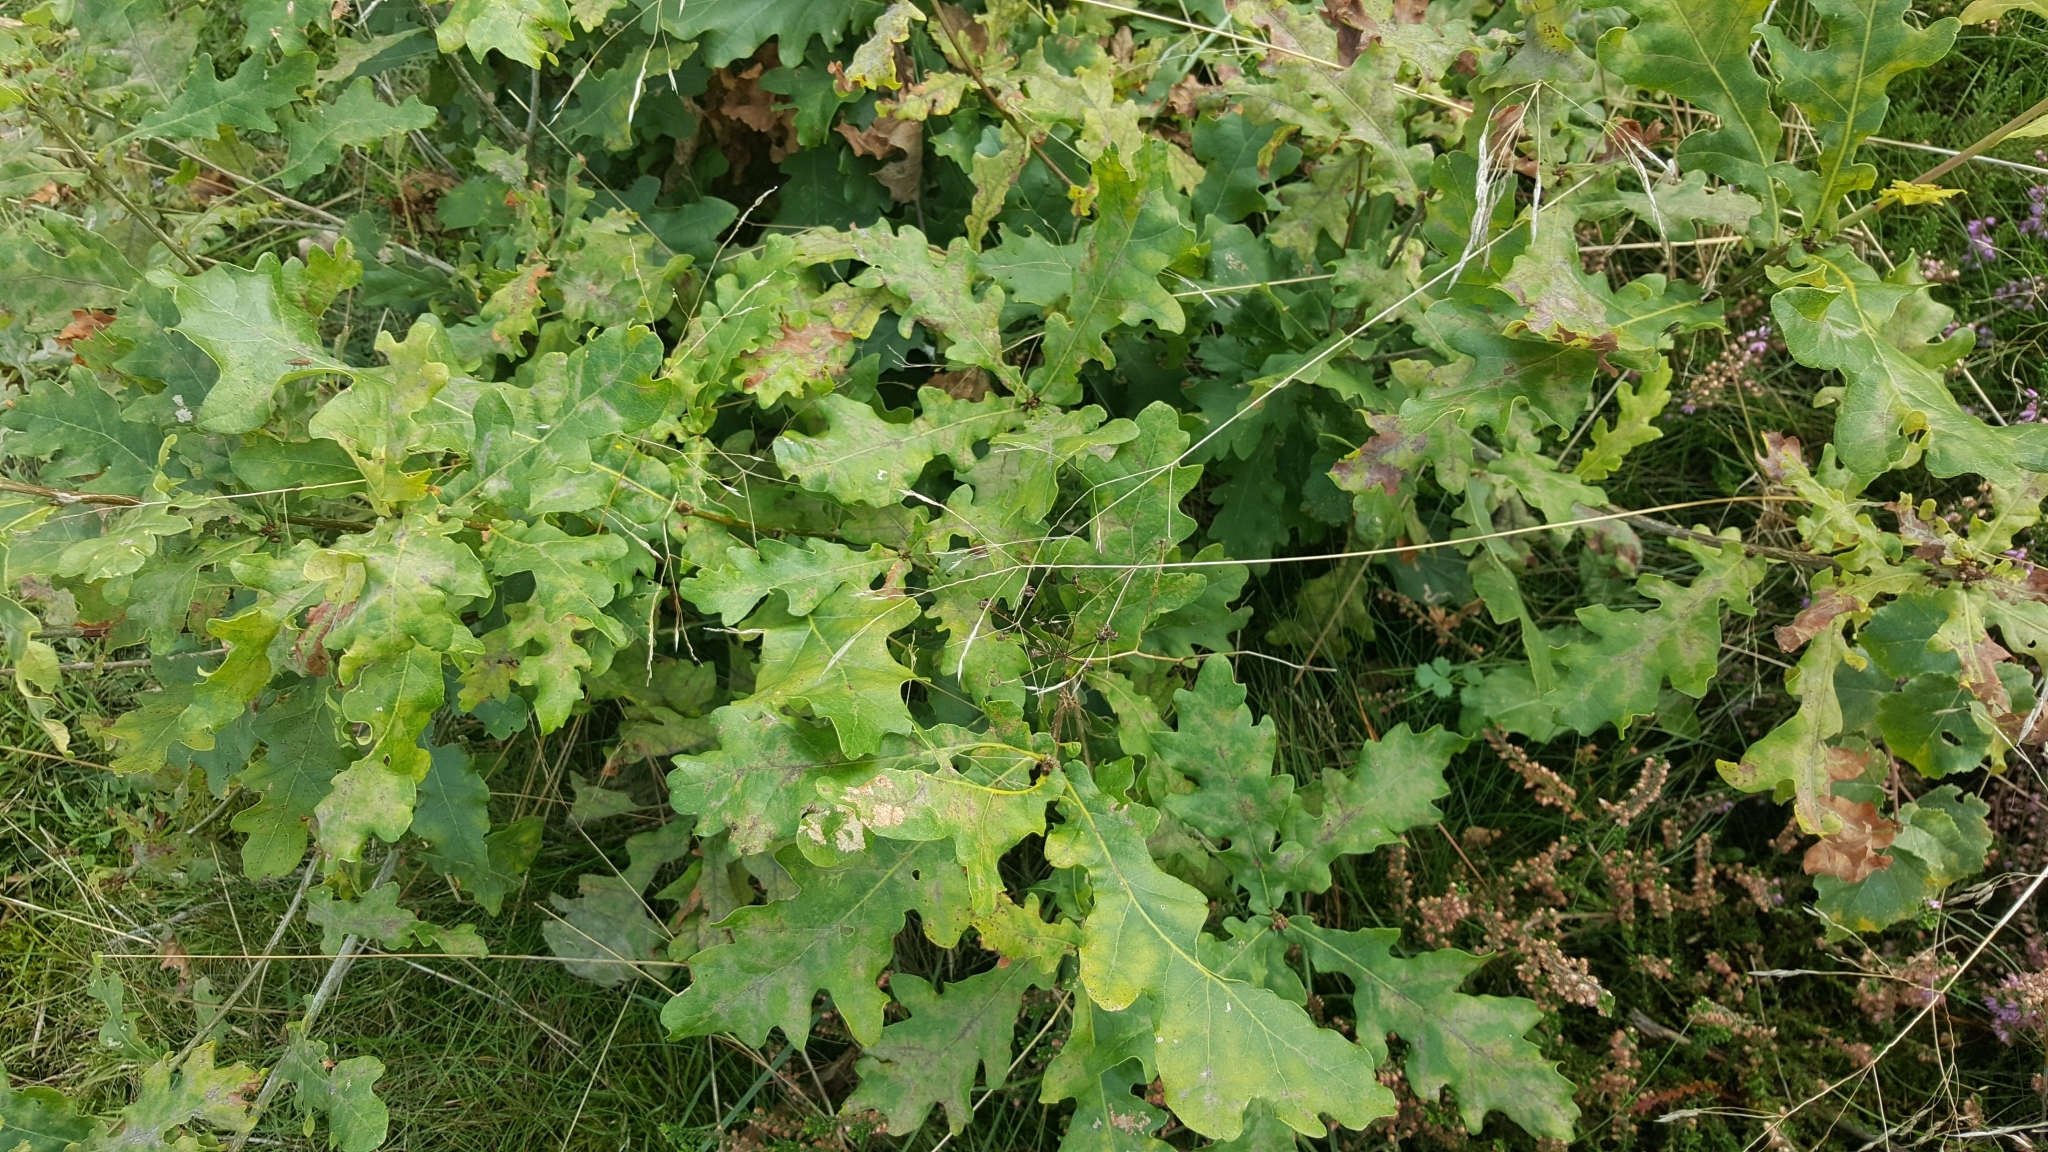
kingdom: Plantae
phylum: Tracheophyta
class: Magnoliopsida
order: Fagales
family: Fagaceae
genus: Quercus
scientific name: Quercus robur
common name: Pedunculate oak
